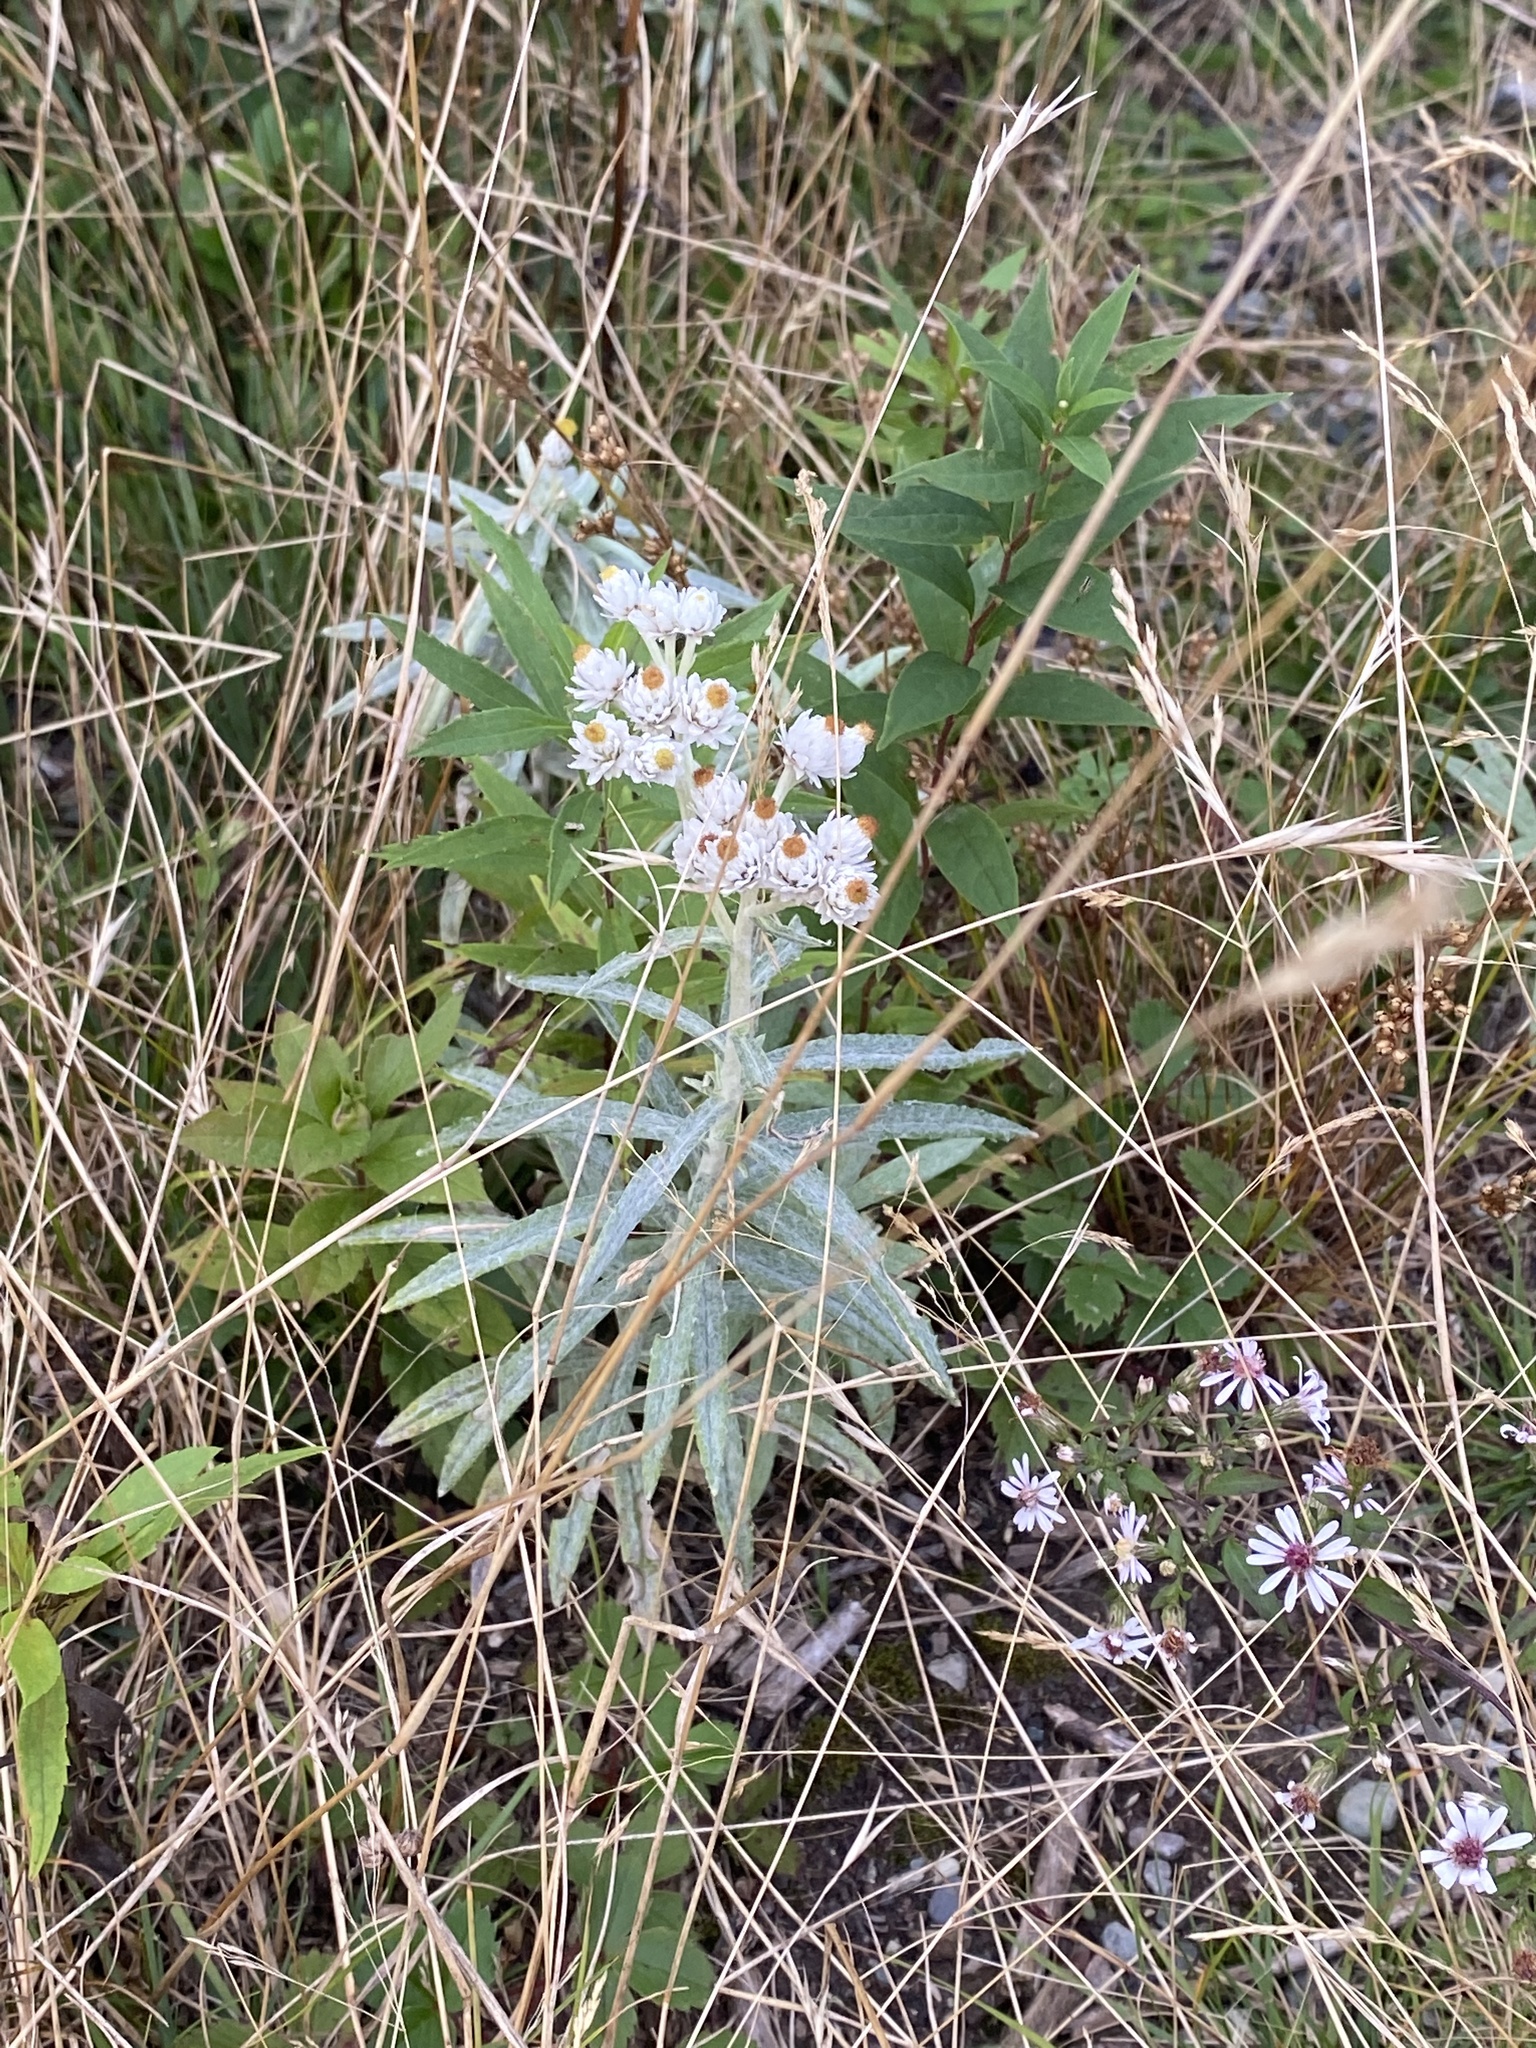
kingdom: Plantae
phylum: Tracheophyta
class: Magnoliopsida
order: Asterales
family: Asteraceae
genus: Anaphalis
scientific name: Anaphalis margaritacea
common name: Pearly everlasting
